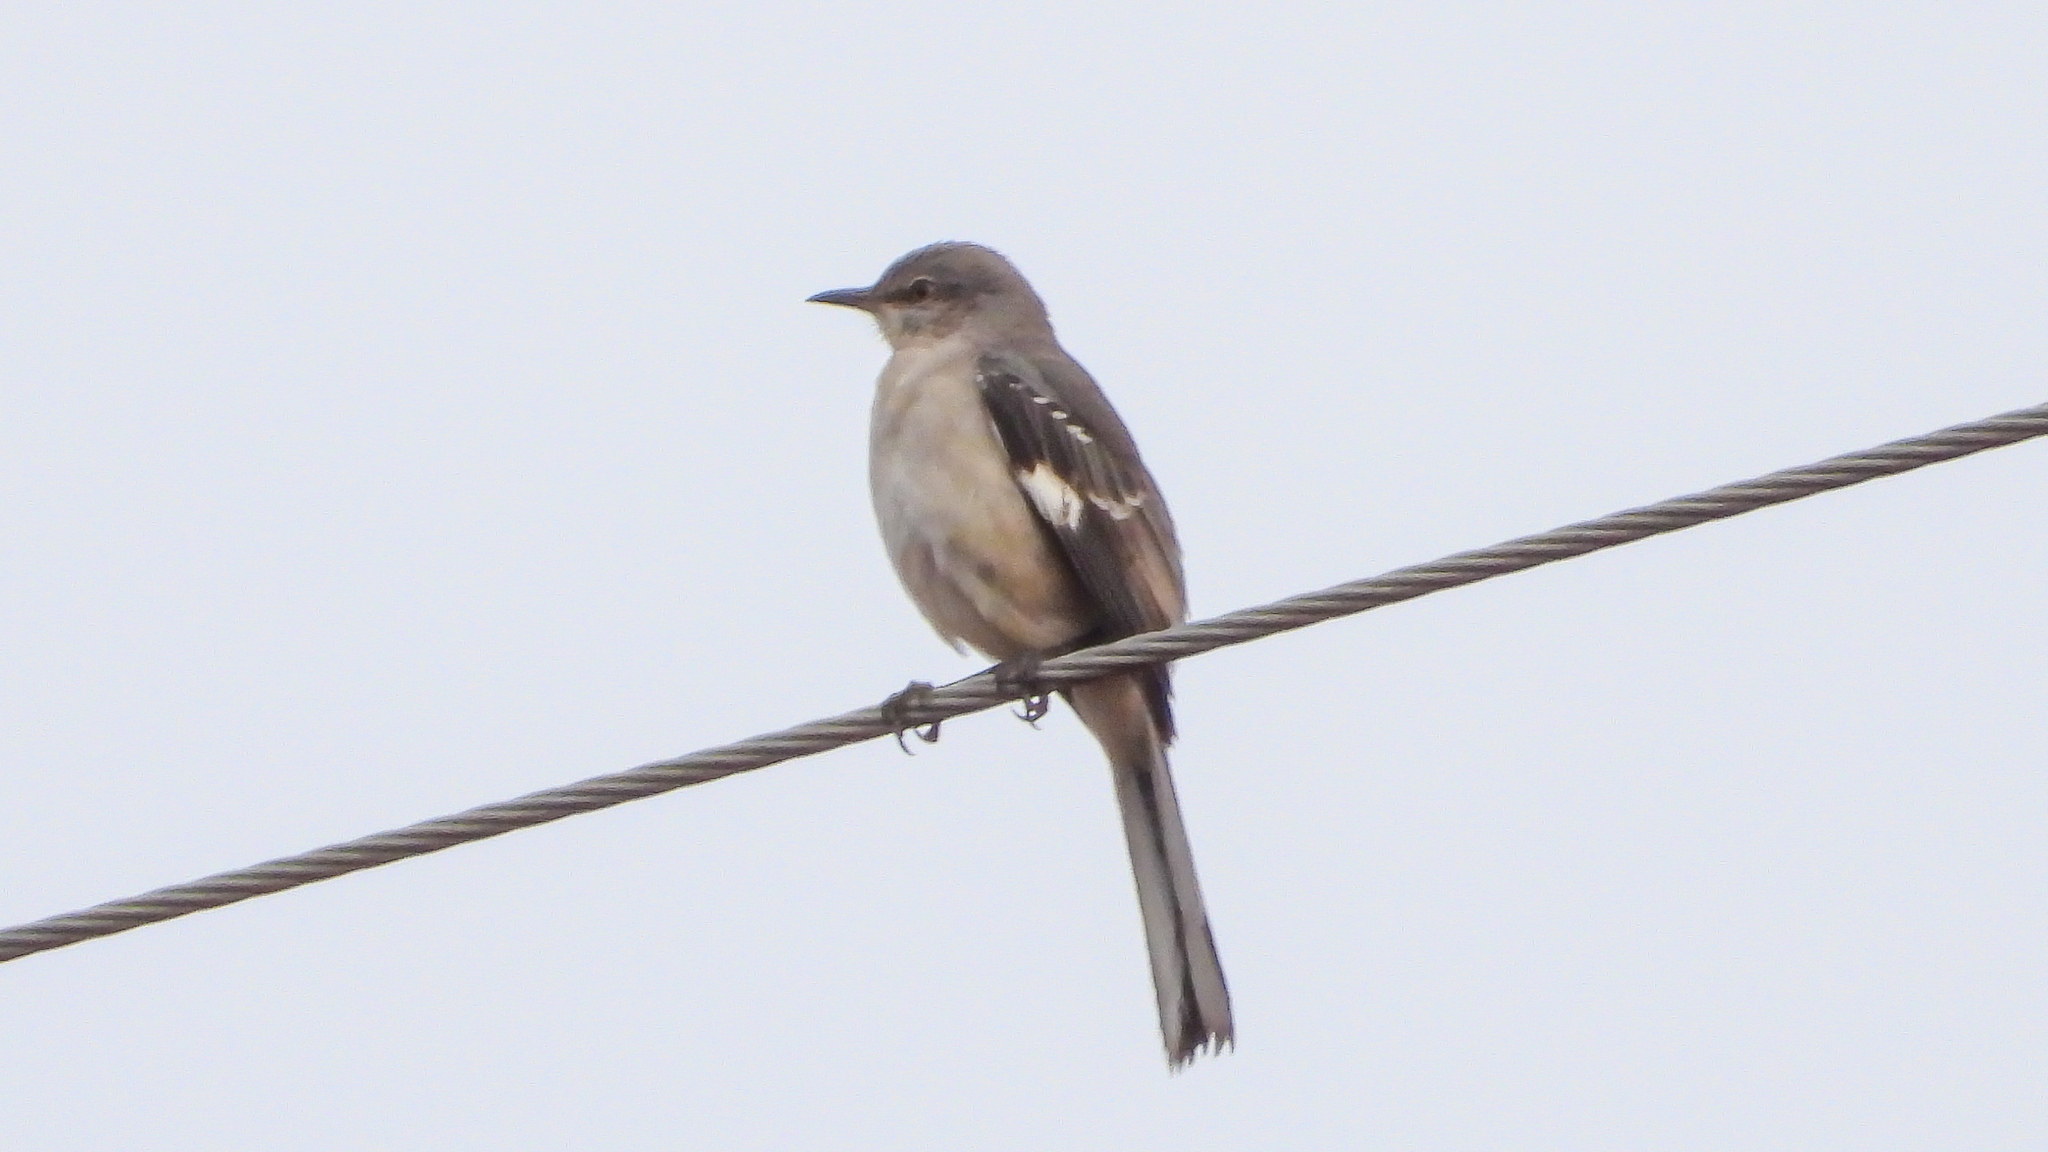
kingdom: Animalia
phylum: Chordata
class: Aves
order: Passeriformes
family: Mimidae
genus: Mimus
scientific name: Mimus polyglottos
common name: Northern mockingbird
